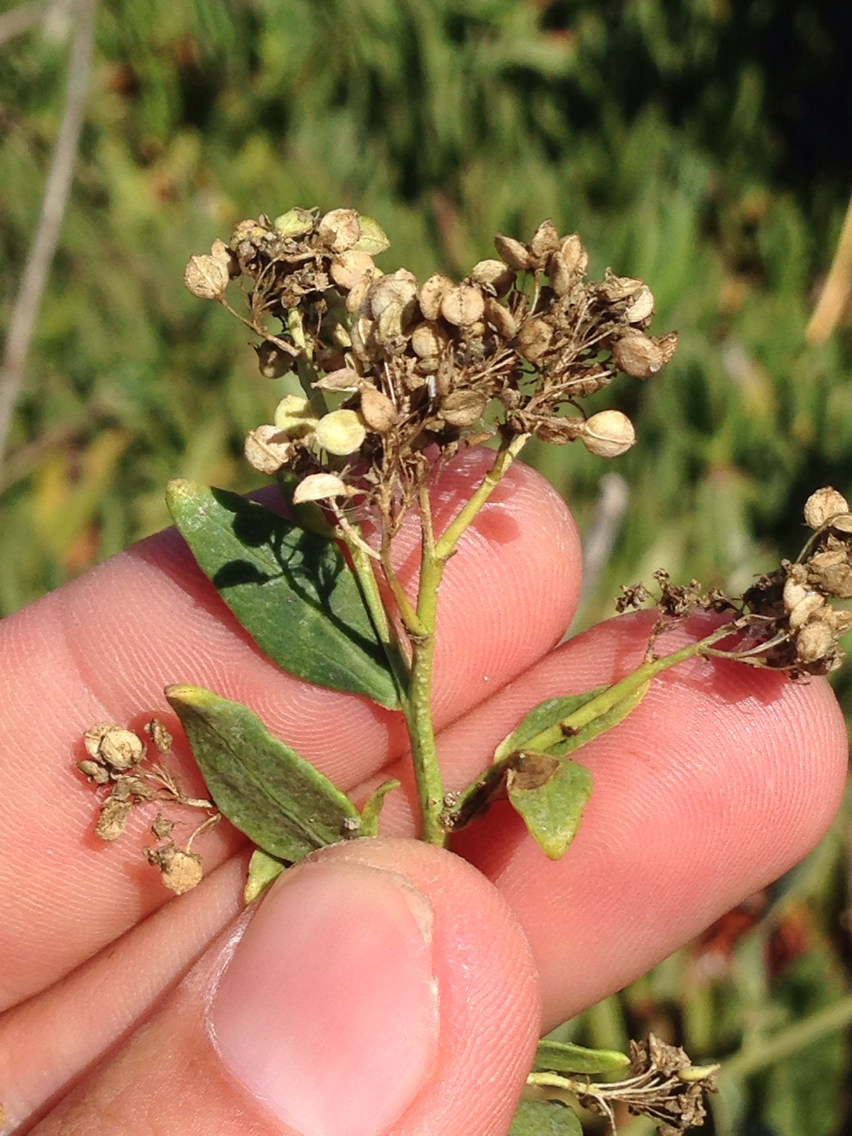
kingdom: Plantae
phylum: Tracheophyta
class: Magnoliopsida
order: Brassicales
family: Brassicaceae
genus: Lepidium
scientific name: Lepidium latifolium
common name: Dittander
